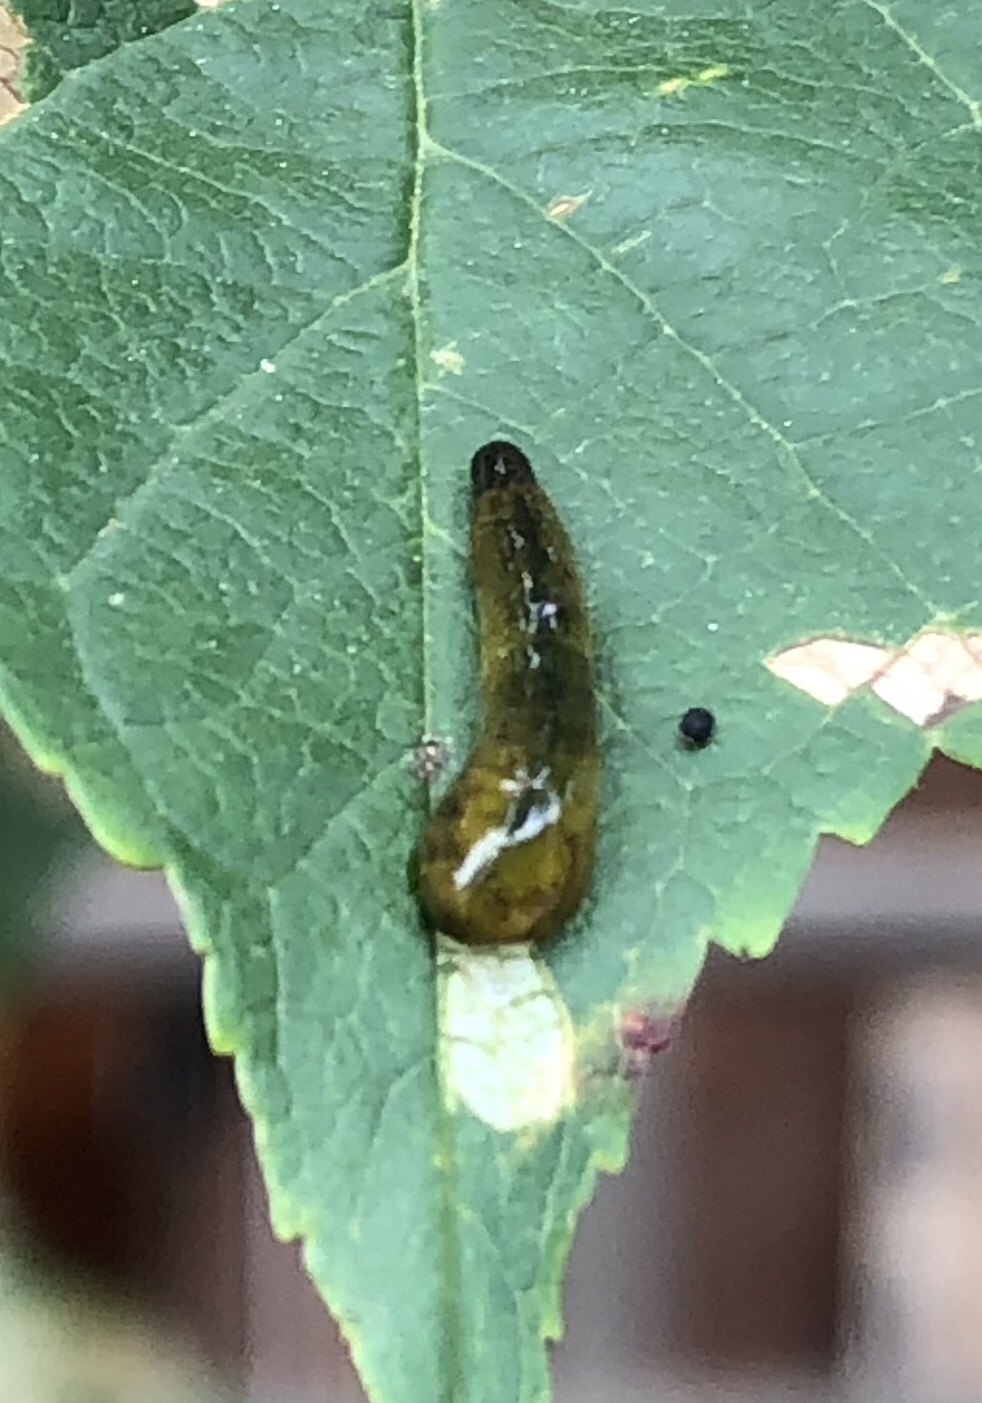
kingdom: Animalia
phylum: Arthropoda
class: Insecta
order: Hymenoptera
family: Tenthredinidae
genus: Caliroa
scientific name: Caliroa cerasi
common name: Pear sawfly
